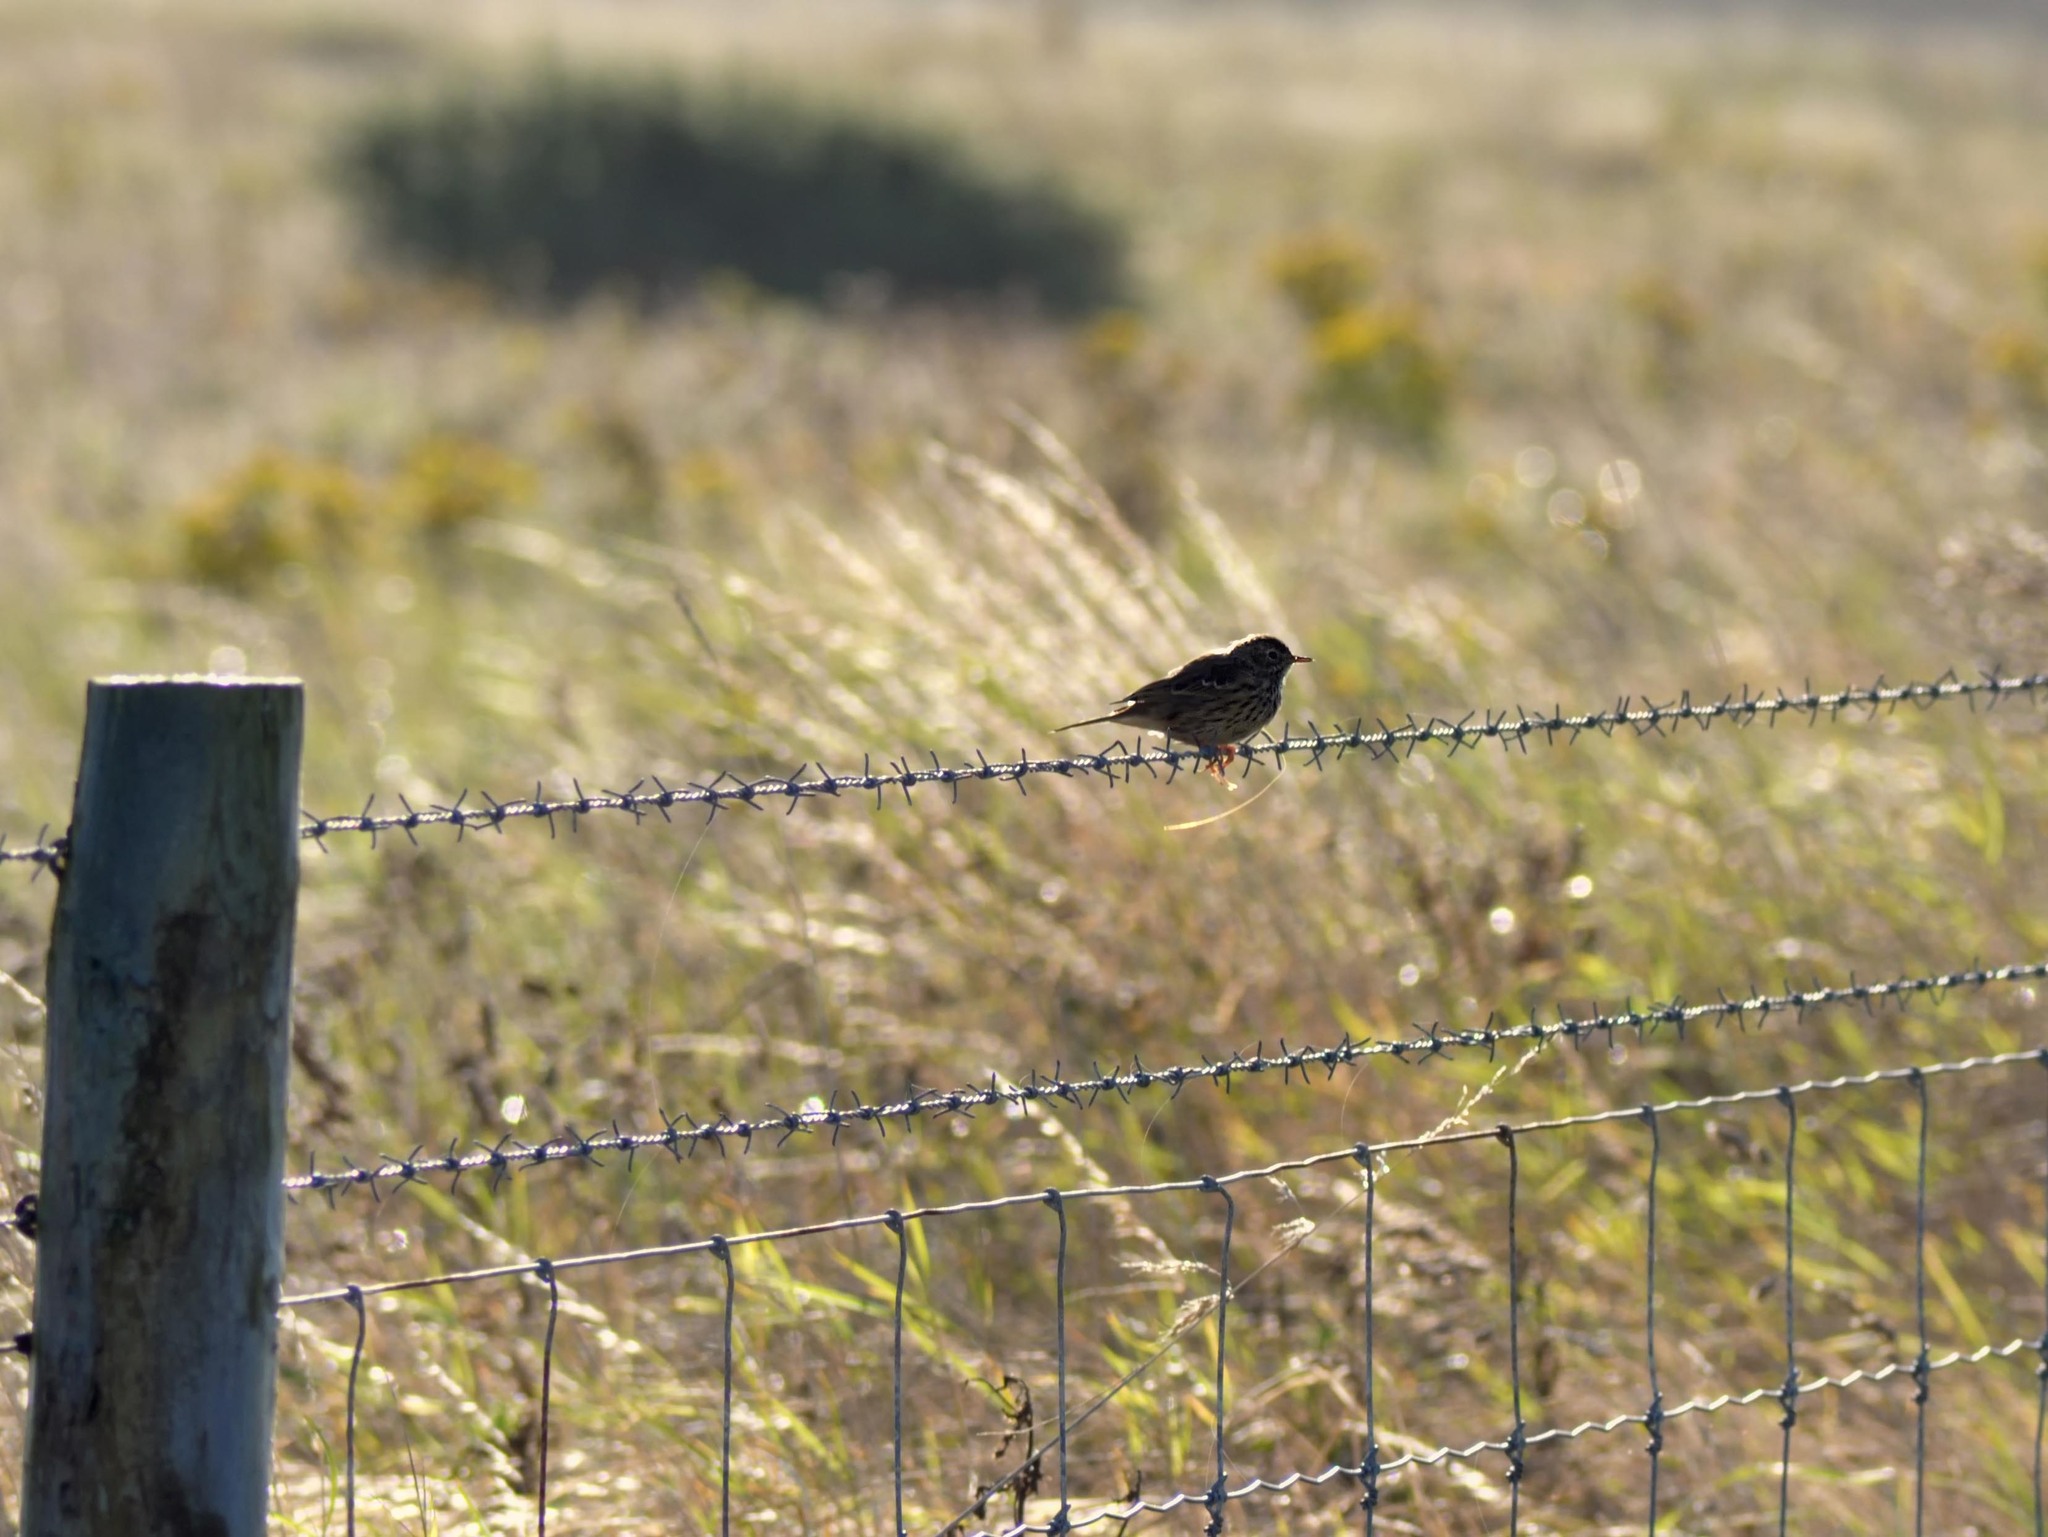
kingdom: Animalia
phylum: Chordata
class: Aves
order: Passeriformes
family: Motacillidae
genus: Anthus
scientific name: Anthus pratensis
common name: Meadow pipit
